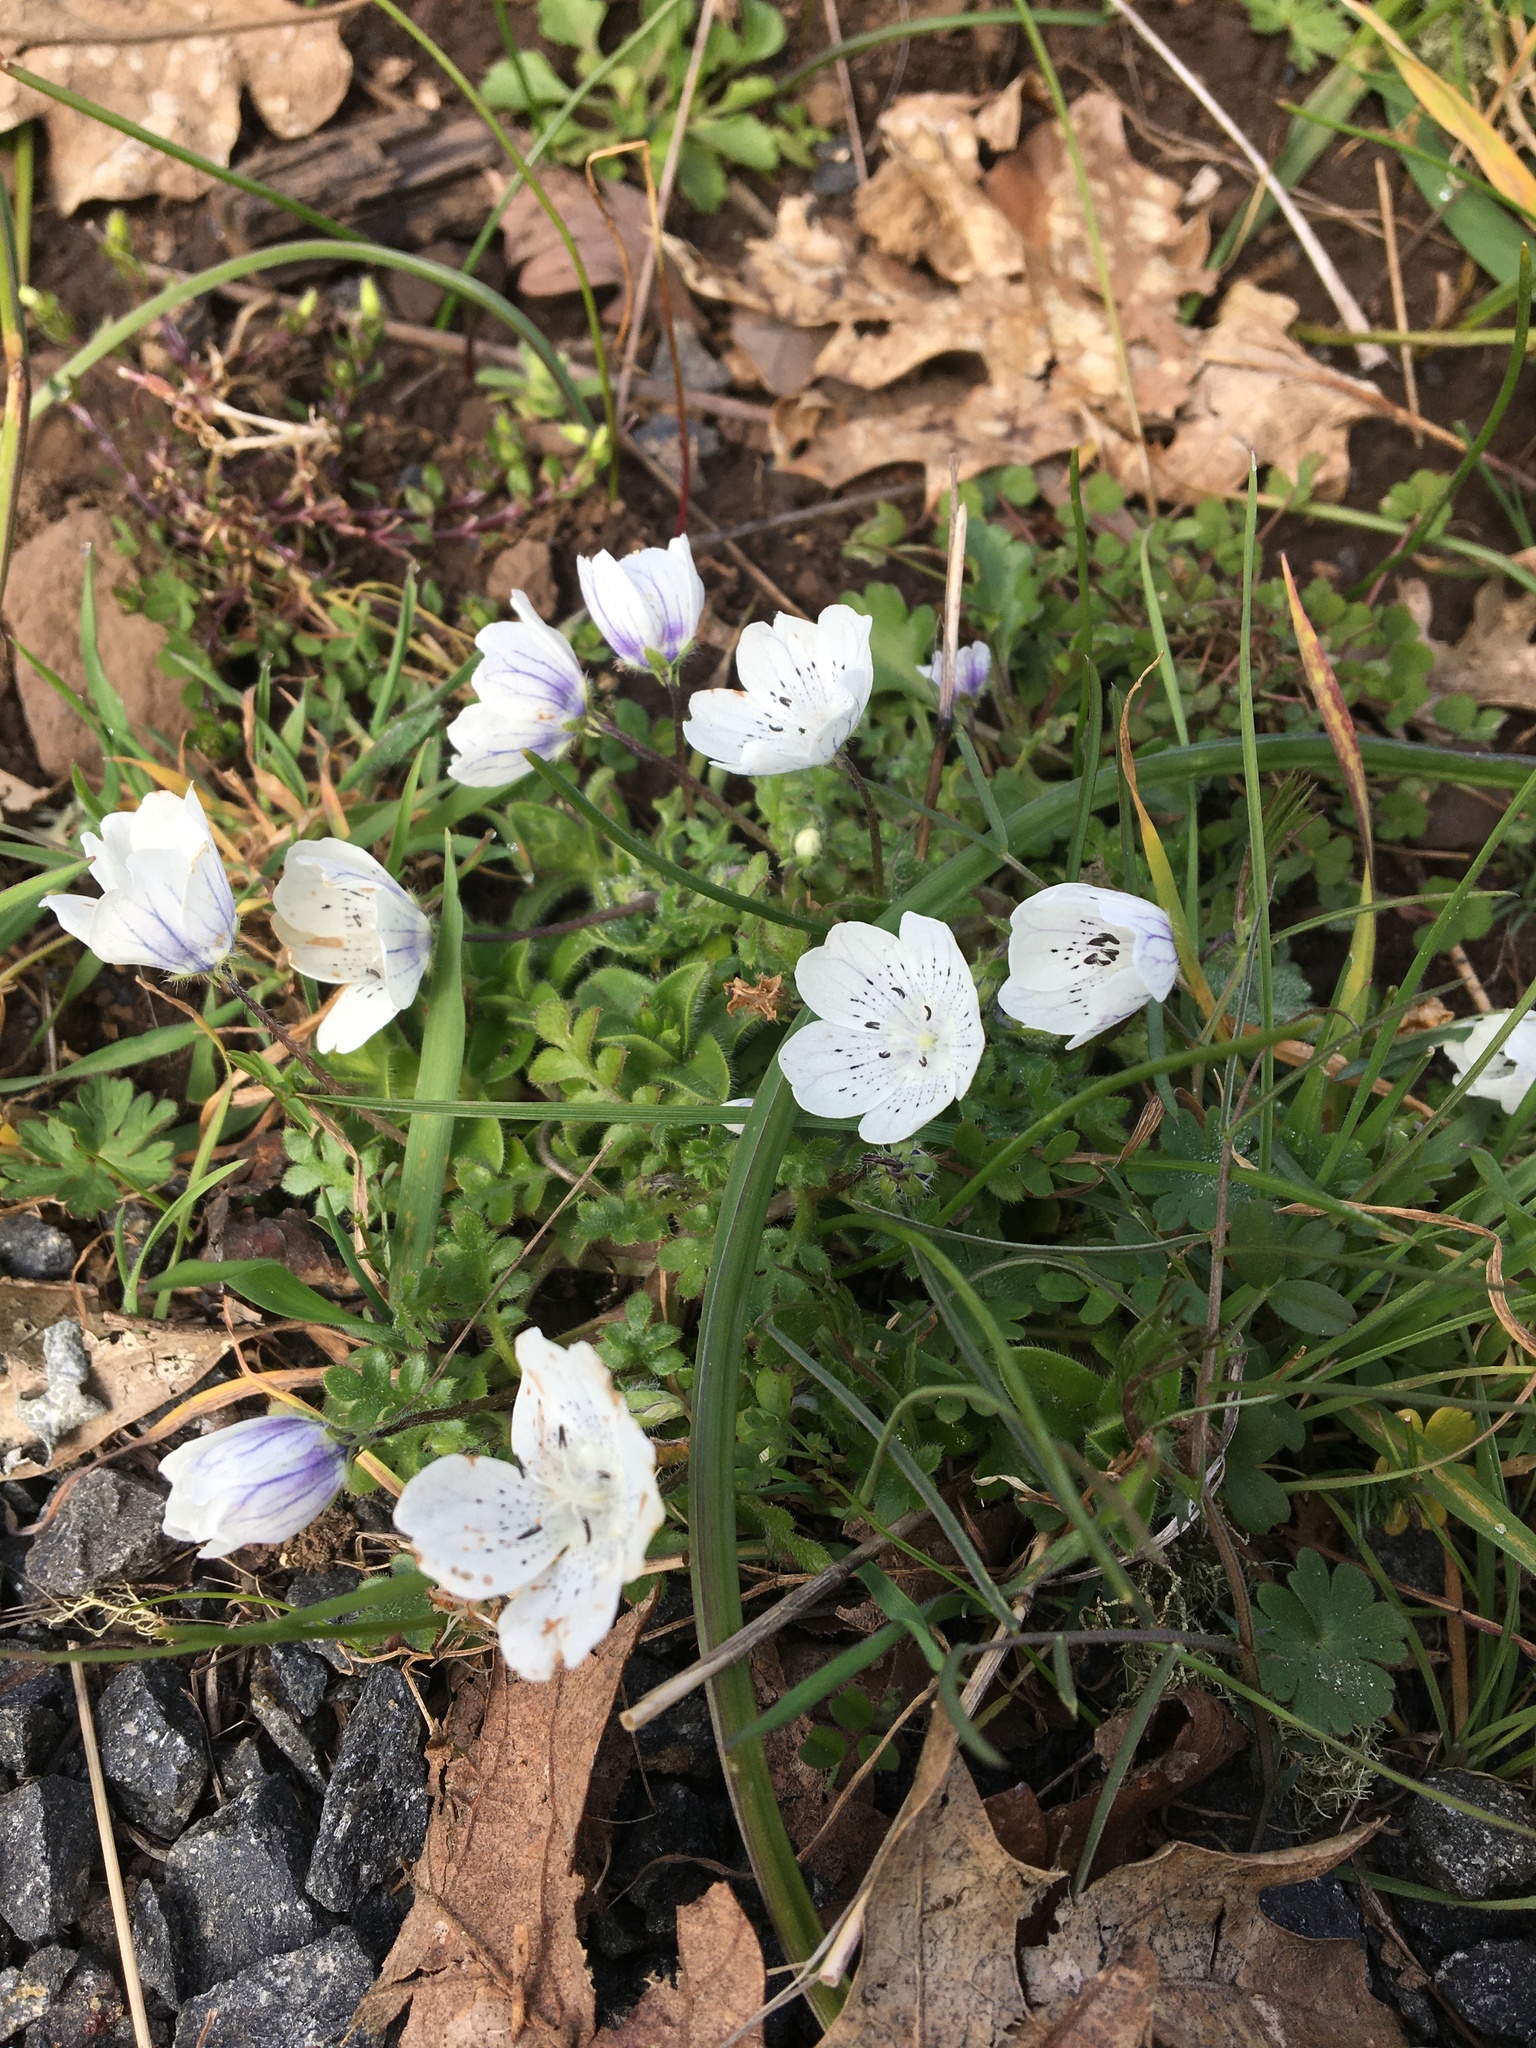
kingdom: Plantae
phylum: Tracheophyta
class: Magnoliopsida
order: Boraginales
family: Hydrophyllaceae
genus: Nemophila
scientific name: Nemophila menziesii
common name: Baby's-blue-eyes
